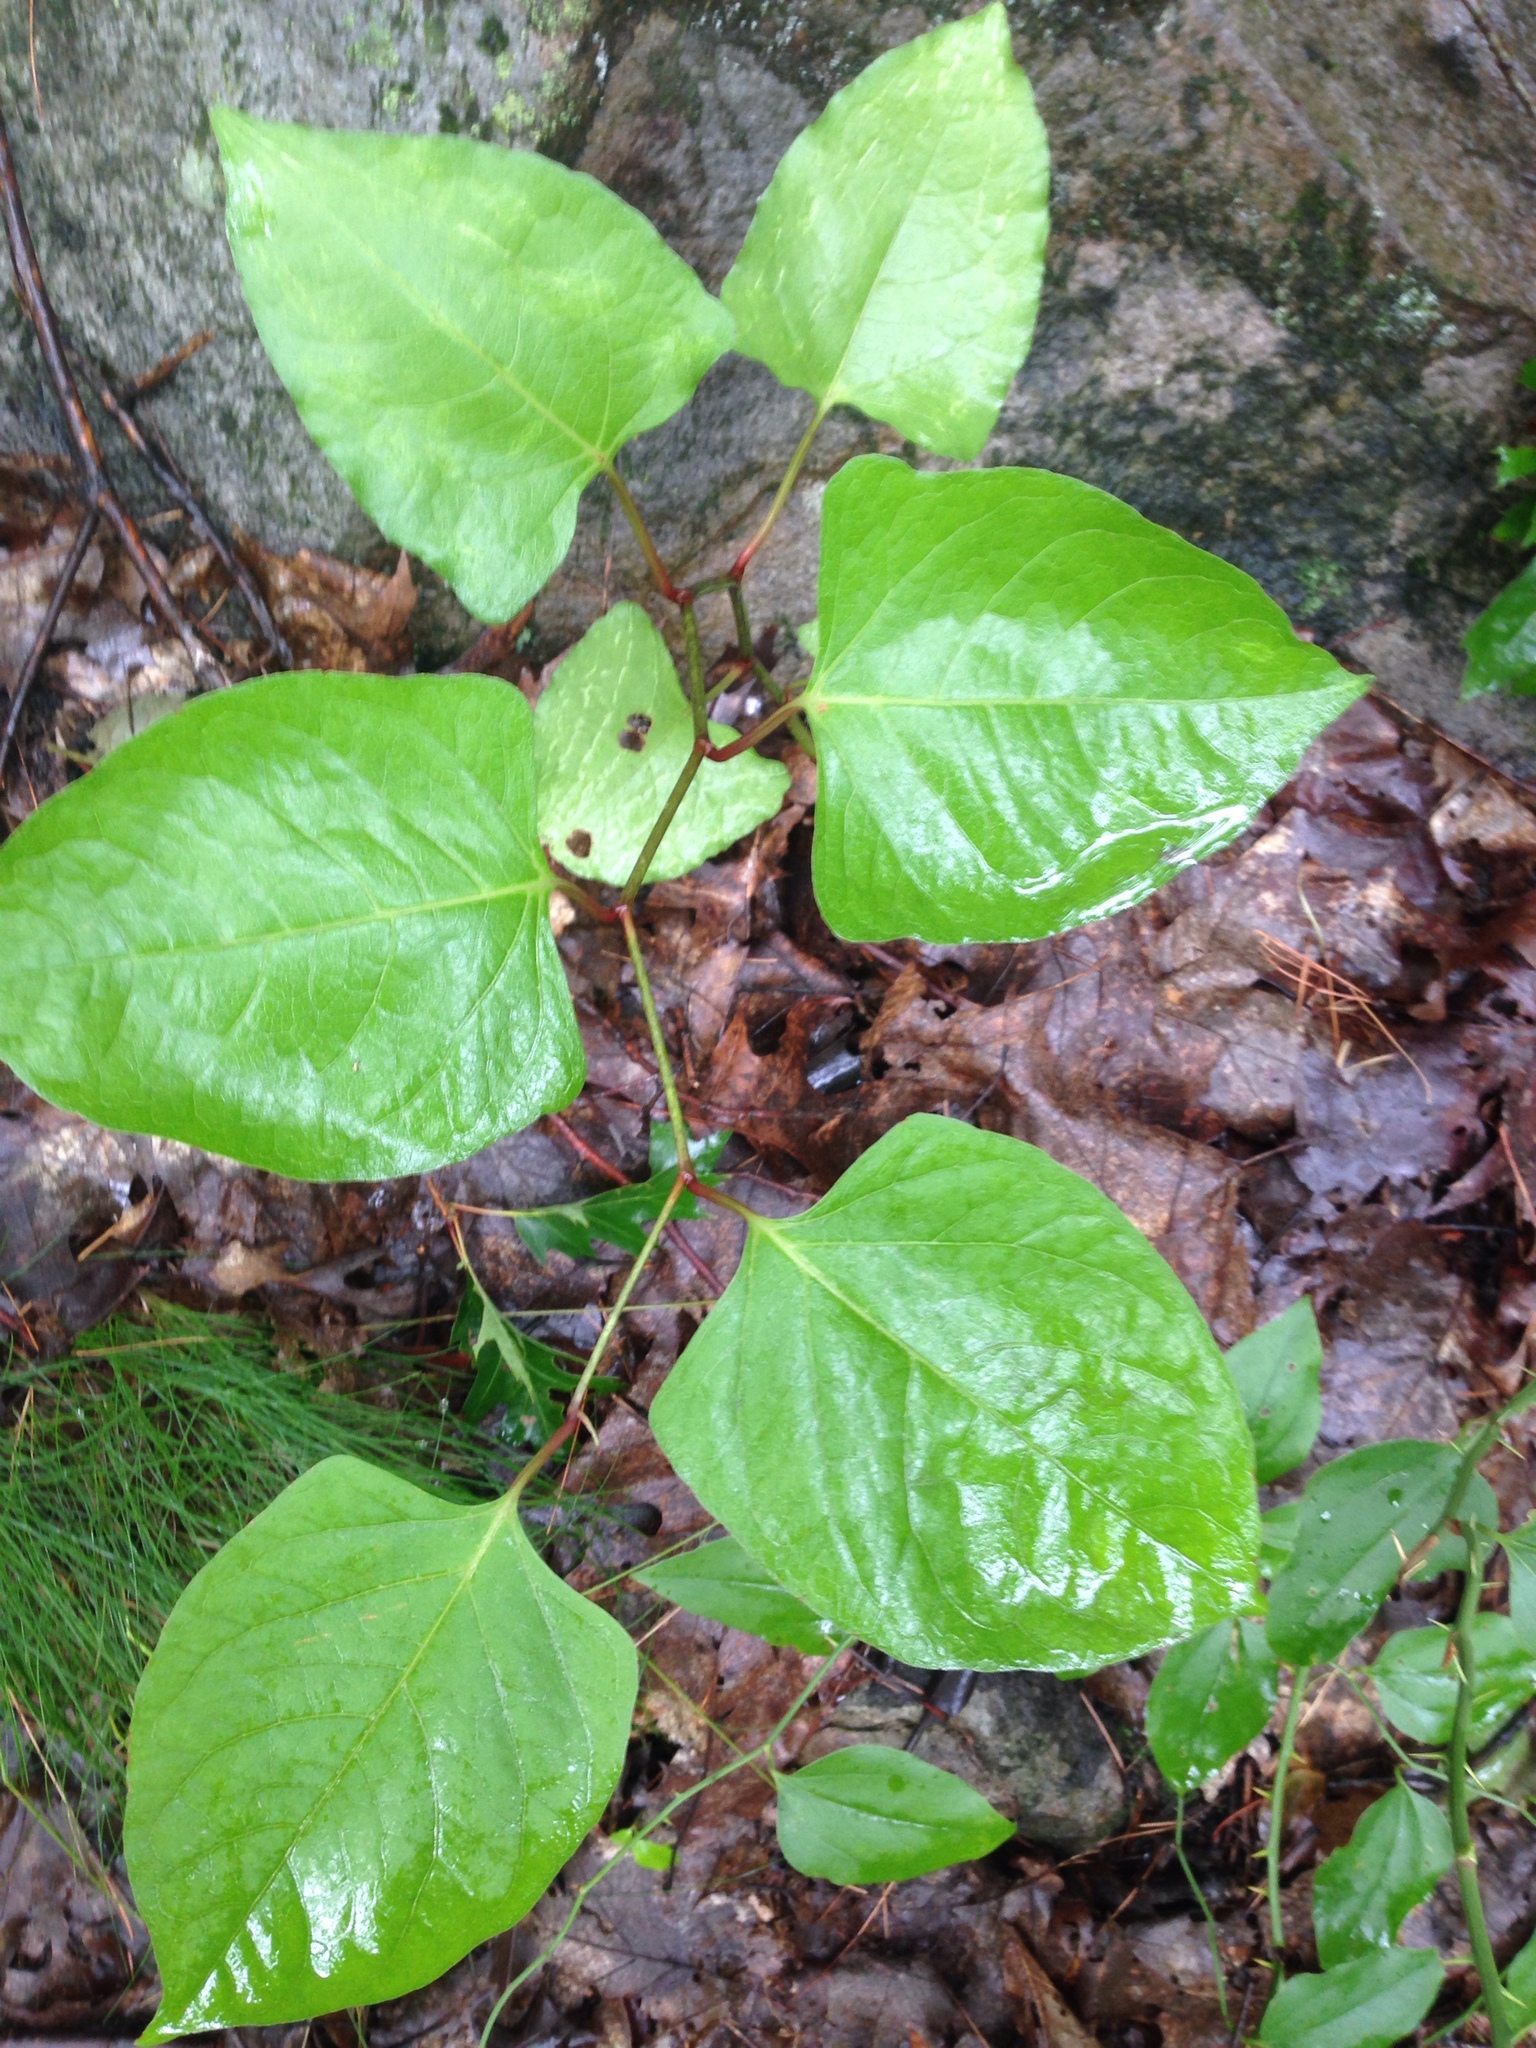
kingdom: Plantae
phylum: Tracheophyta
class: Magnoliopsida
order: Caryophyllales
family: Polygonaceae
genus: Reynoutria
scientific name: Reynoutria japonica
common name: Japanese knotweed
